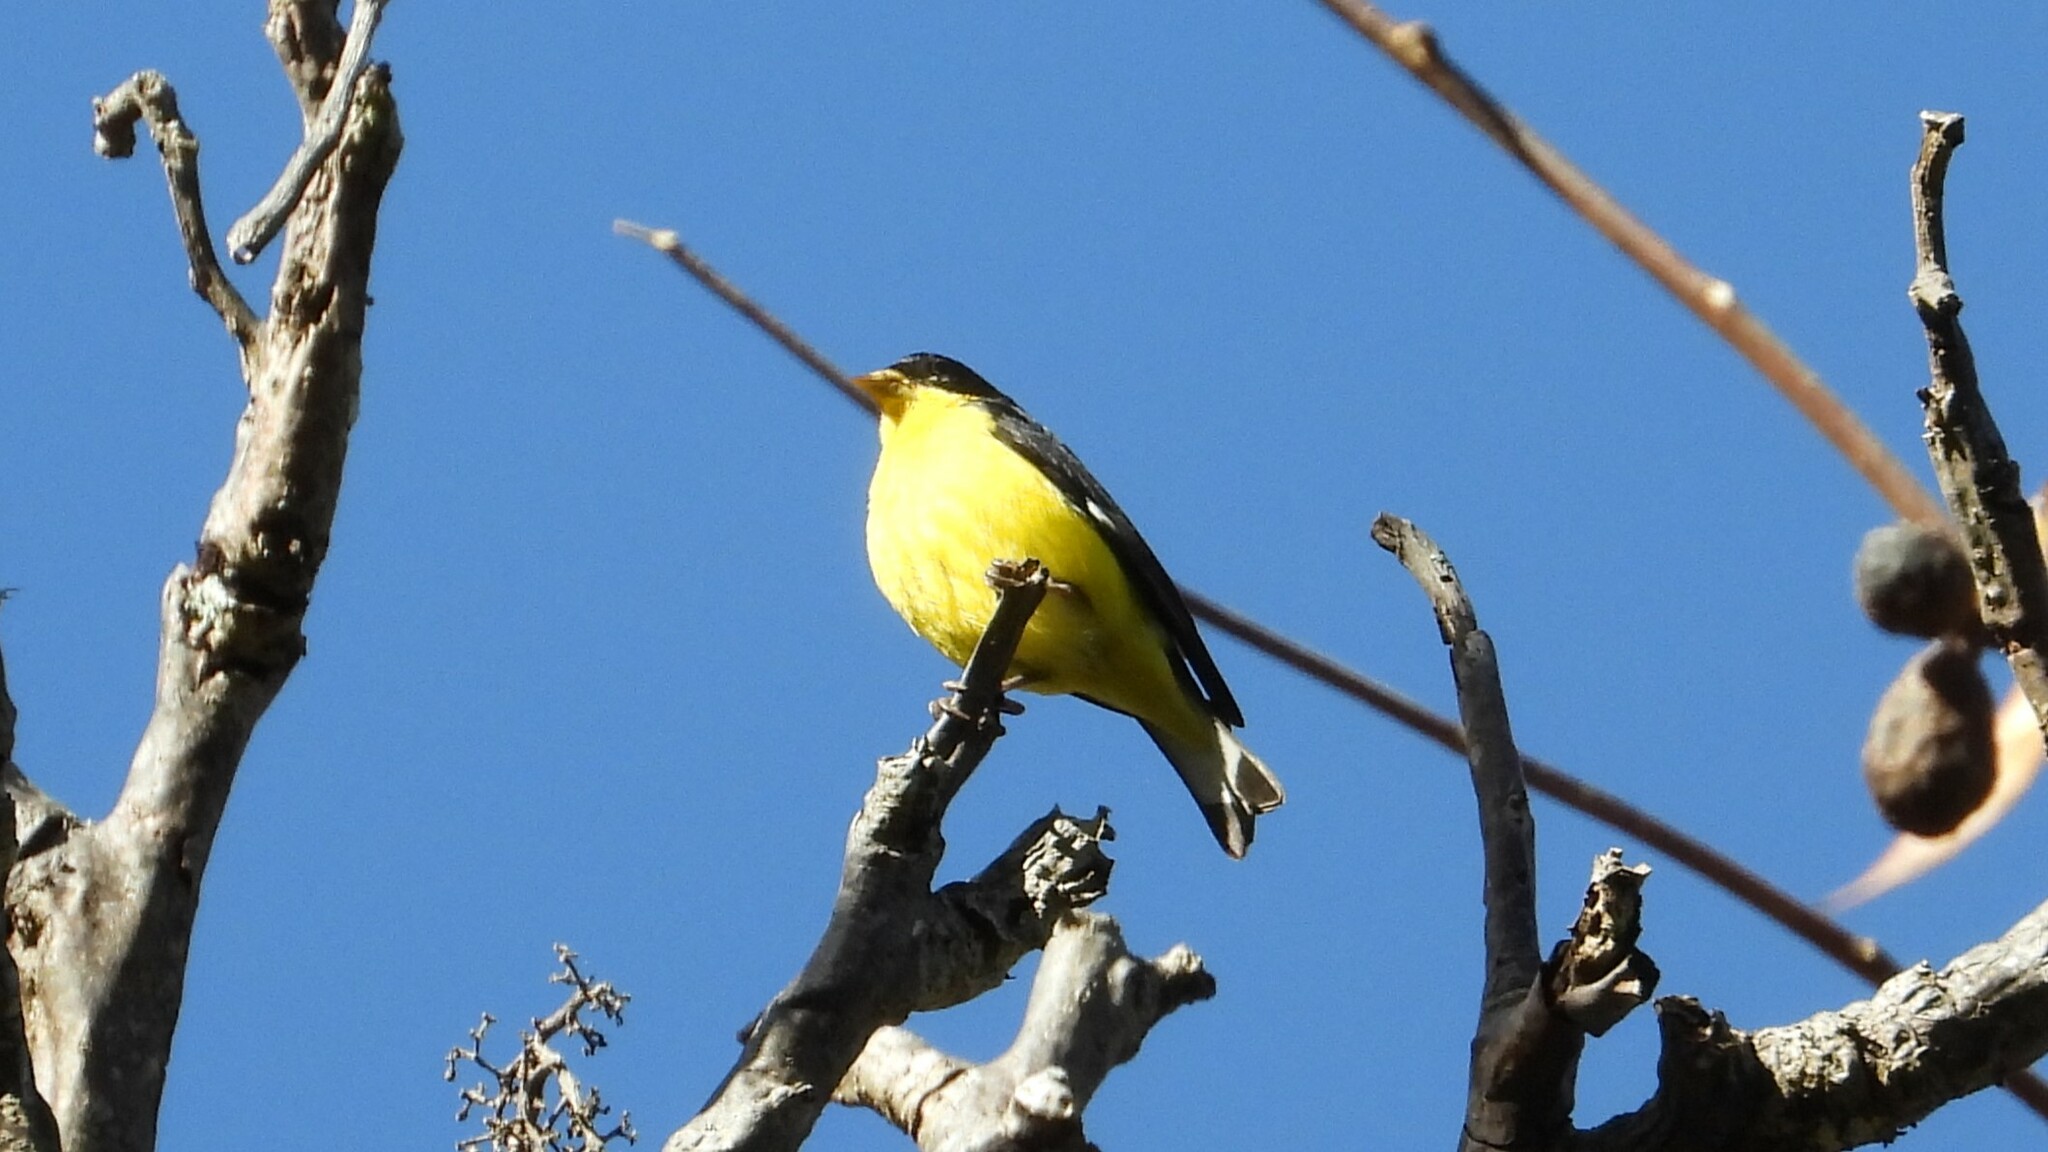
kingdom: Animalia
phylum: Chordata
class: Aves
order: Passeriformes
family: Fringillidae
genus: Spinus
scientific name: Spinus psaltria
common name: Lesser goldfinch
